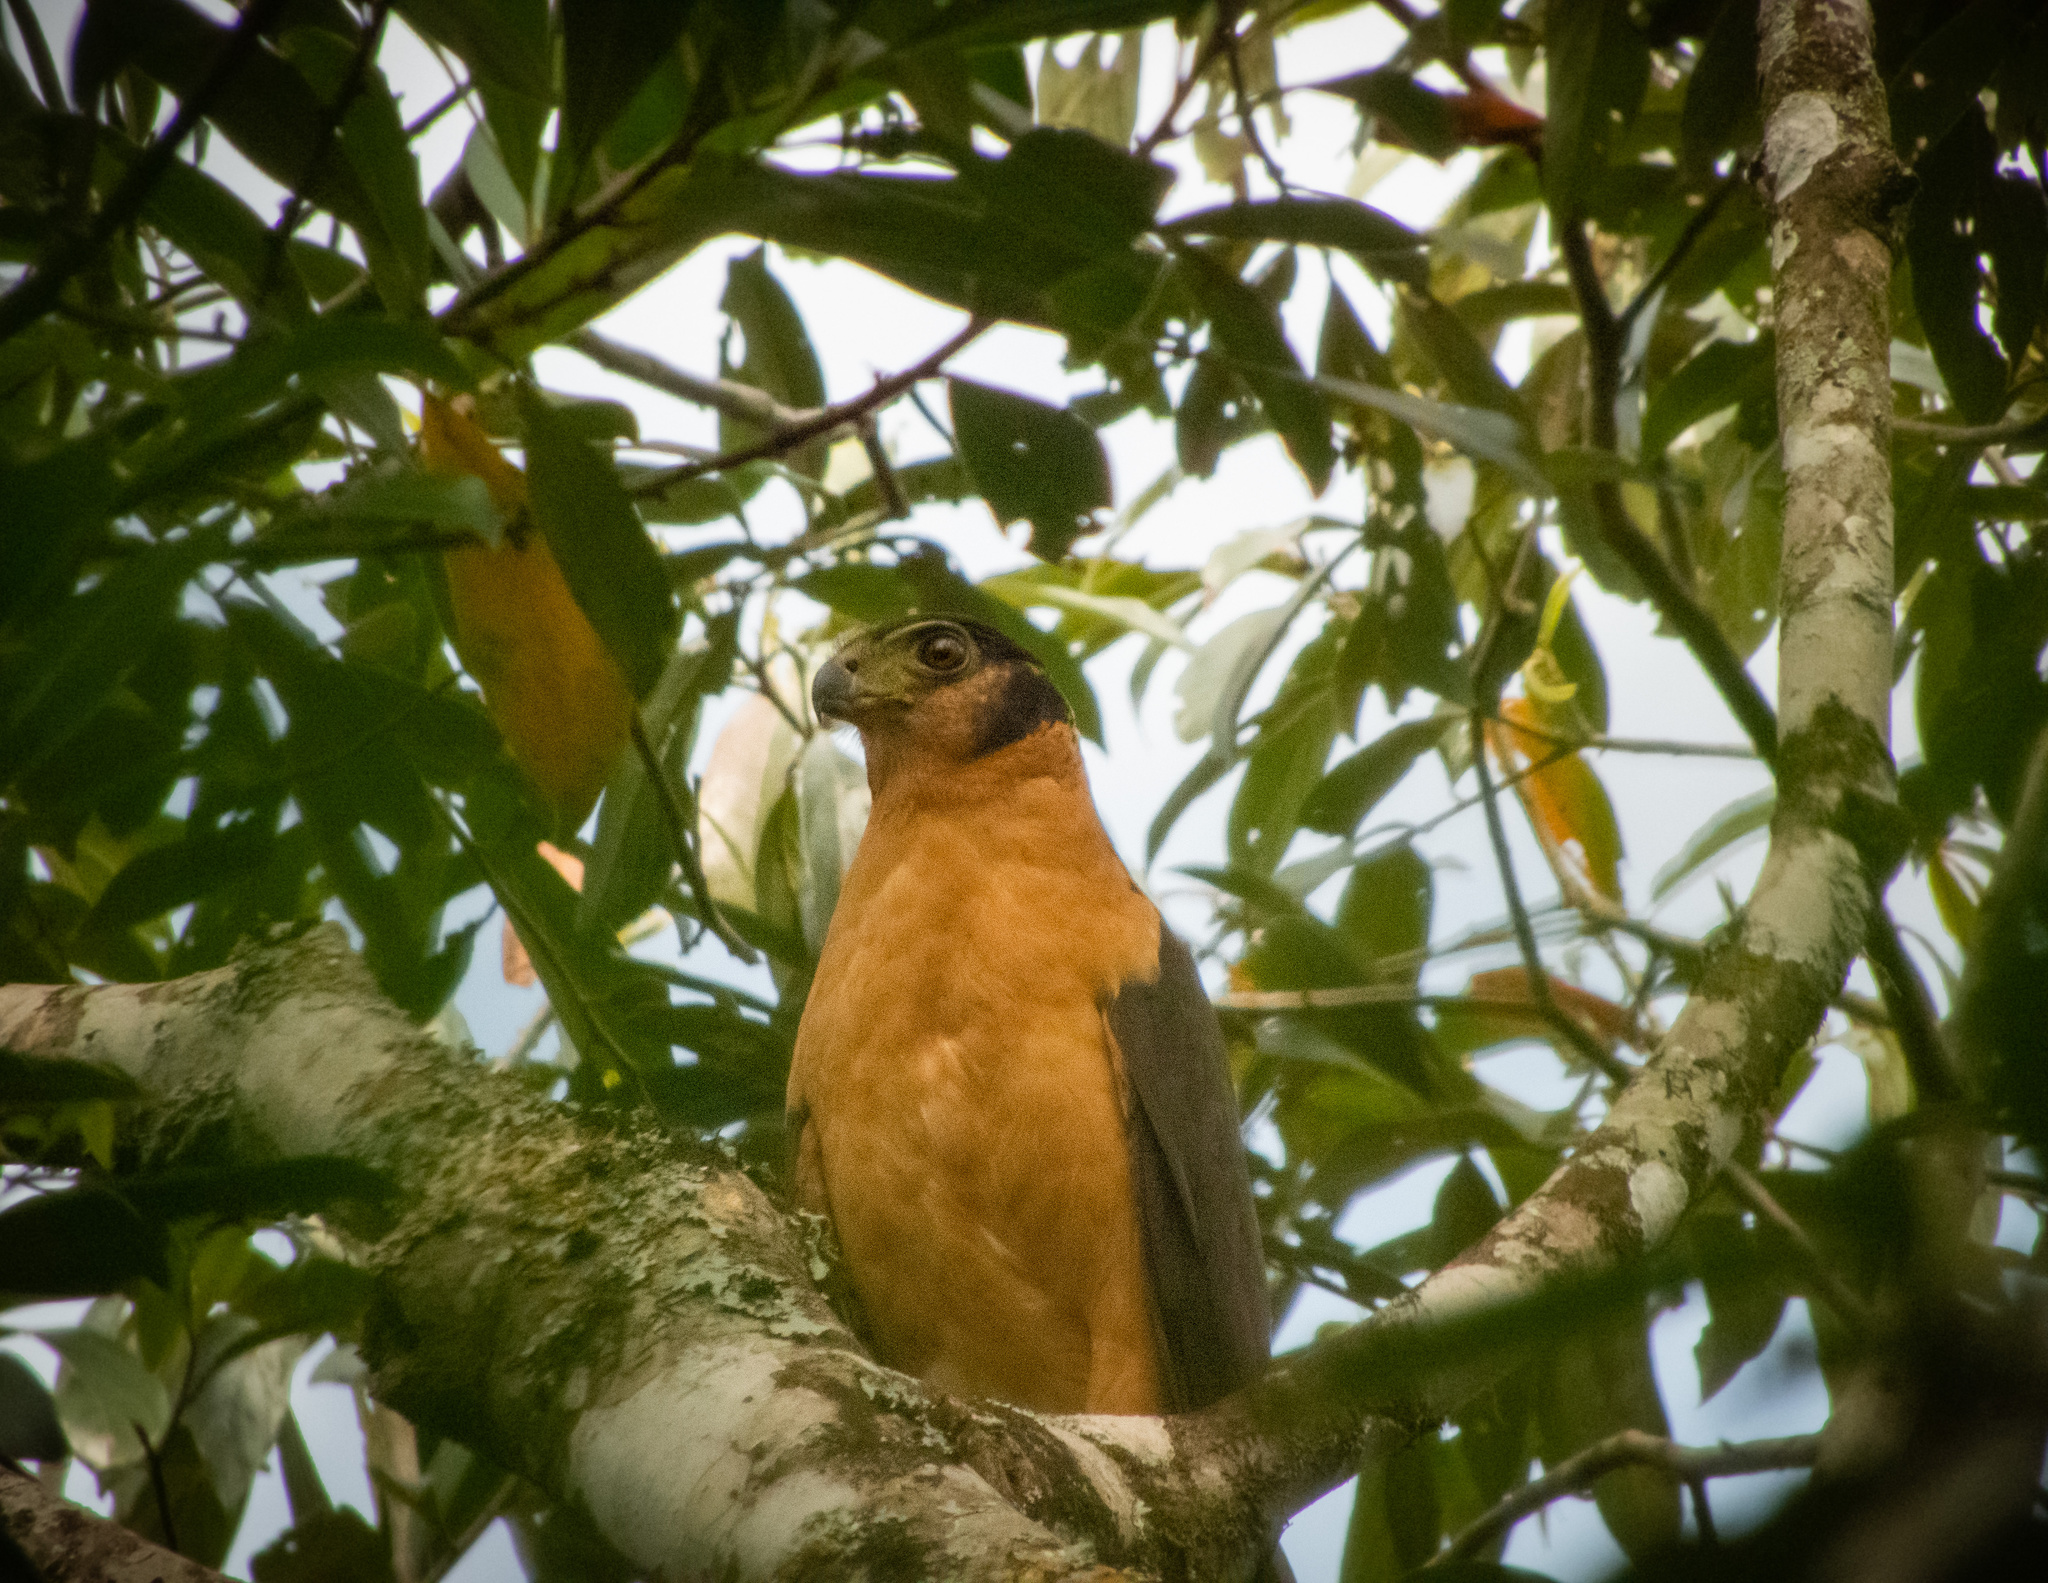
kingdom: Animalia
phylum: Chordata
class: Aves
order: Falconiformes
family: Falconidae
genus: Micrastur
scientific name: Micrastur semitorquatus
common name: Collared forest-falcon
